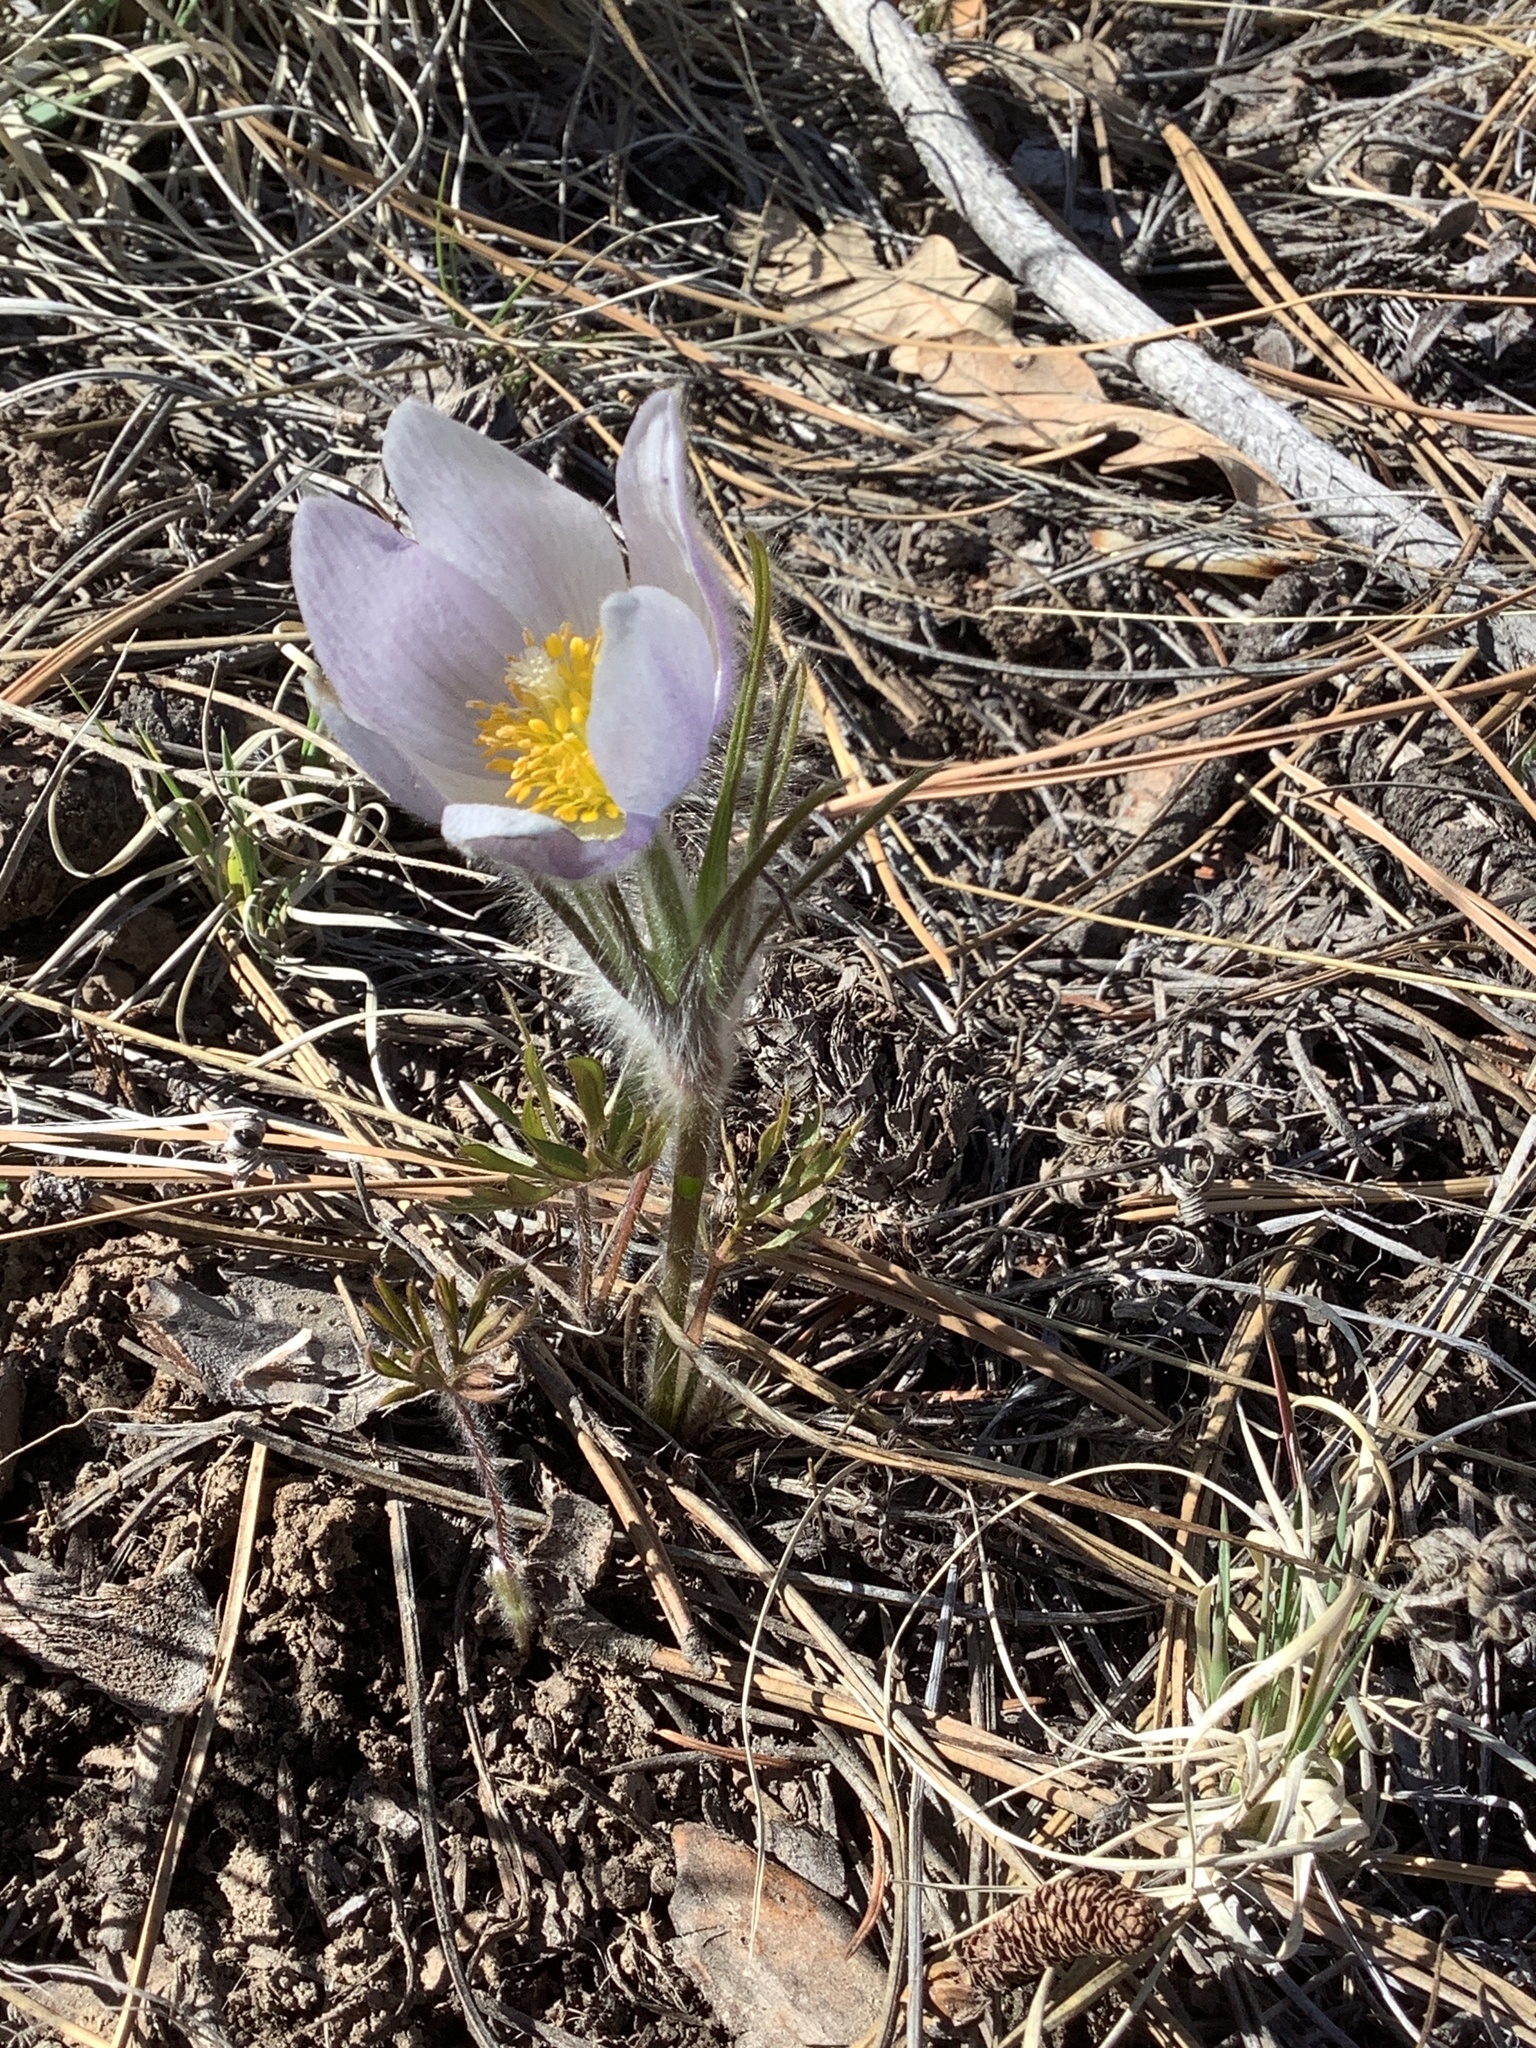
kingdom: Plantae
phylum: Tracheophyta
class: Magnoliopsida
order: Ranunculales
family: Ranunculaceae
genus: Pulsatilla
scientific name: Pulsatilla nuttalliana
